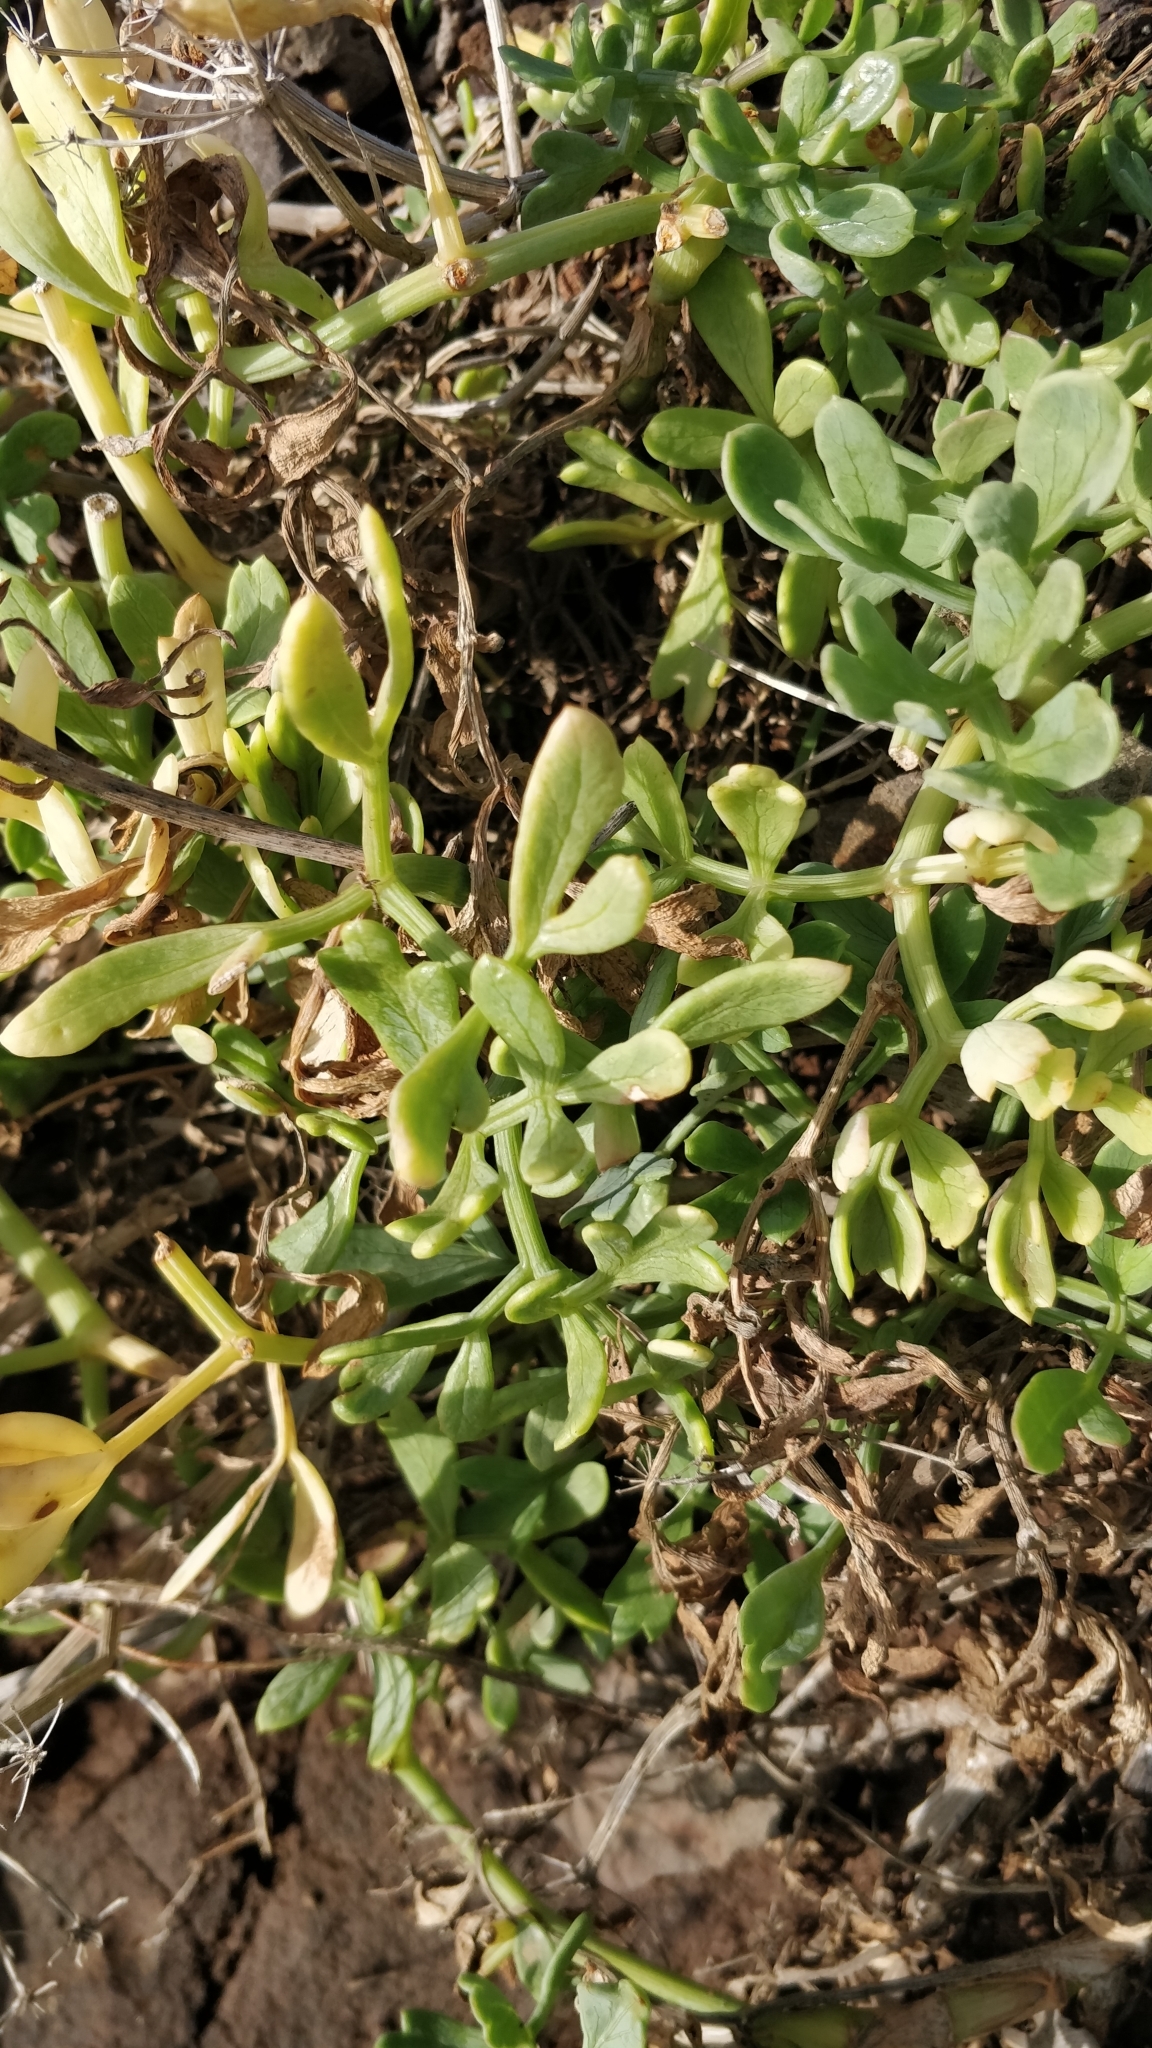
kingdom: Plantae
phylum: Tracheophyta
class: Magnoliopsida
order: Apiales
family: Apiaceae
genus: Crithmum
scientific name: Crithmum maritimum
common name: Rock samphire
